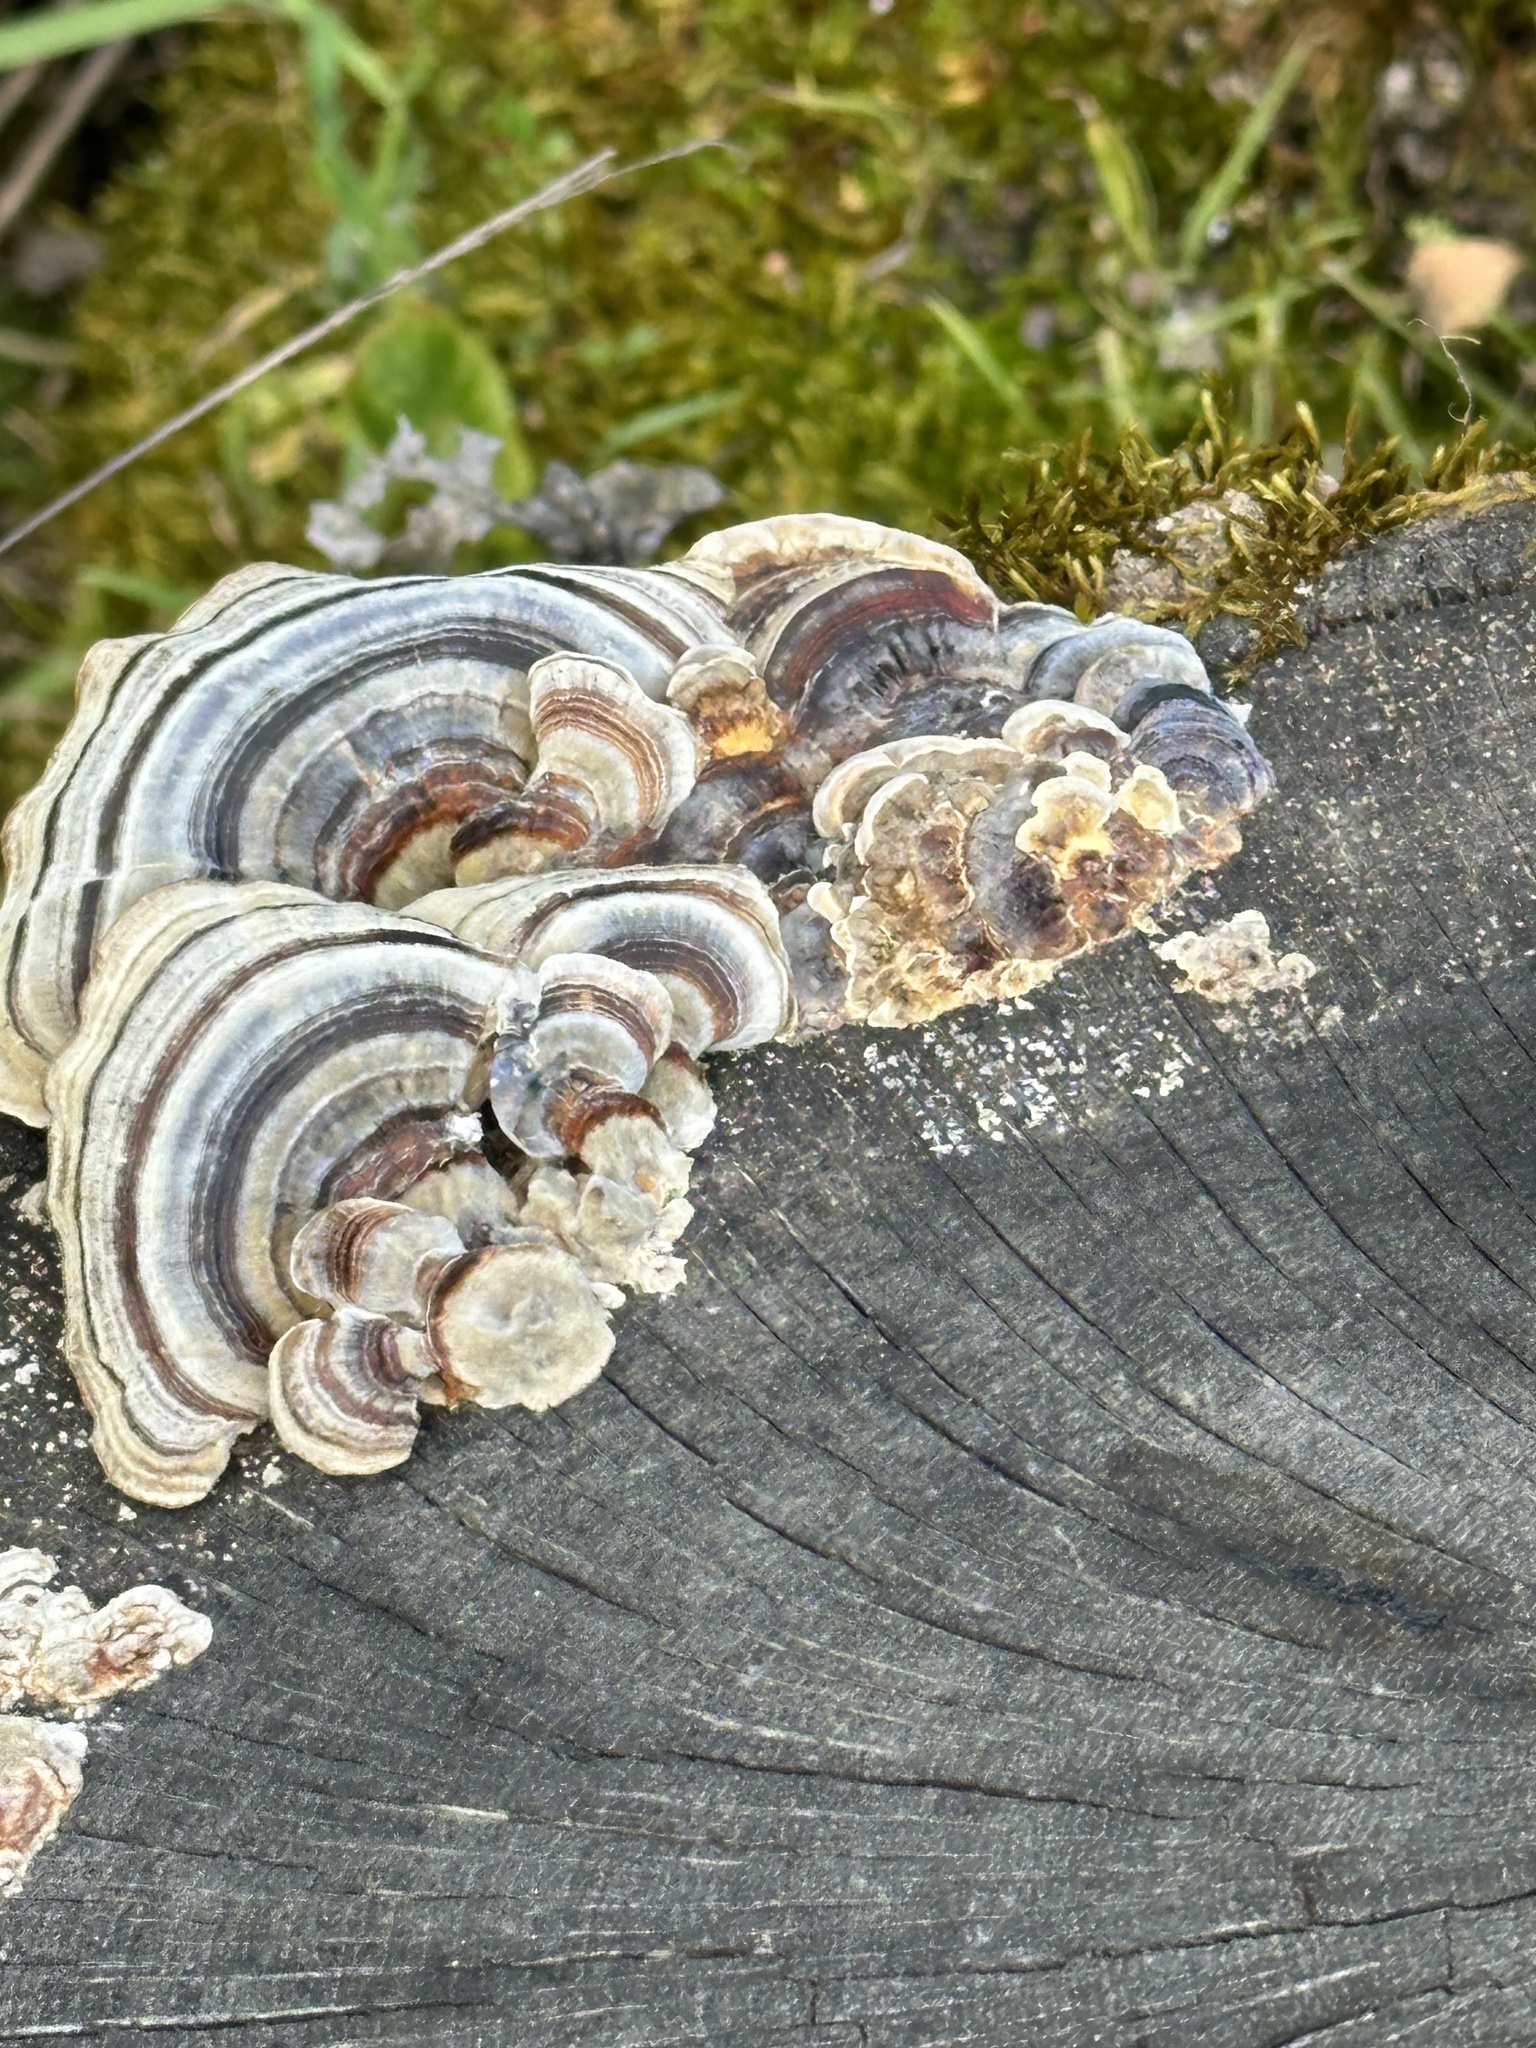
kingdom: Fungi
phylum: Basidiomycota
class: Agaricomycetes
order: Polyporales
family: Polyporaceae
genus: Trametes
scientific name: Trametes versicolor
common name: Turkeytail
